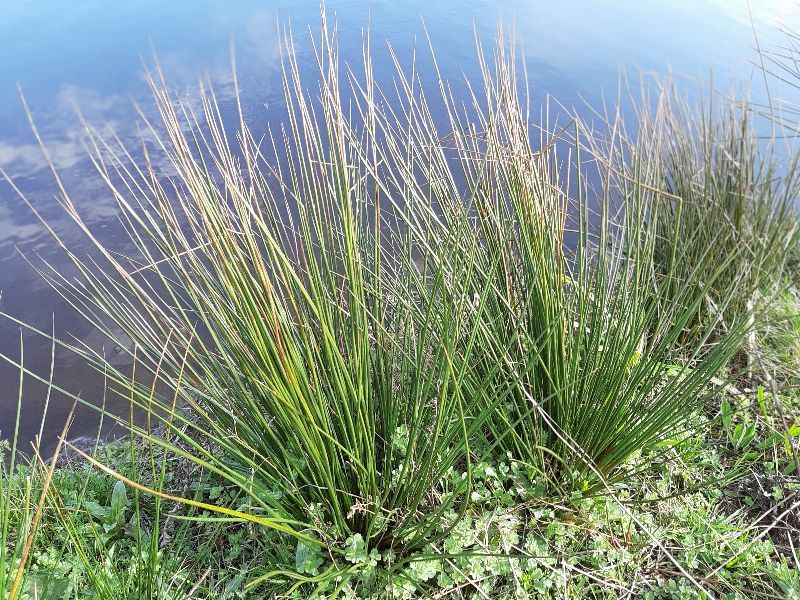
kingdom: Plantae
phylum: Tracheophyta
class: Liliopsida
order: Poales
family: Juncaceae
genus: Juncus
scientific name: Juncus effusus
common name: Soft rush
